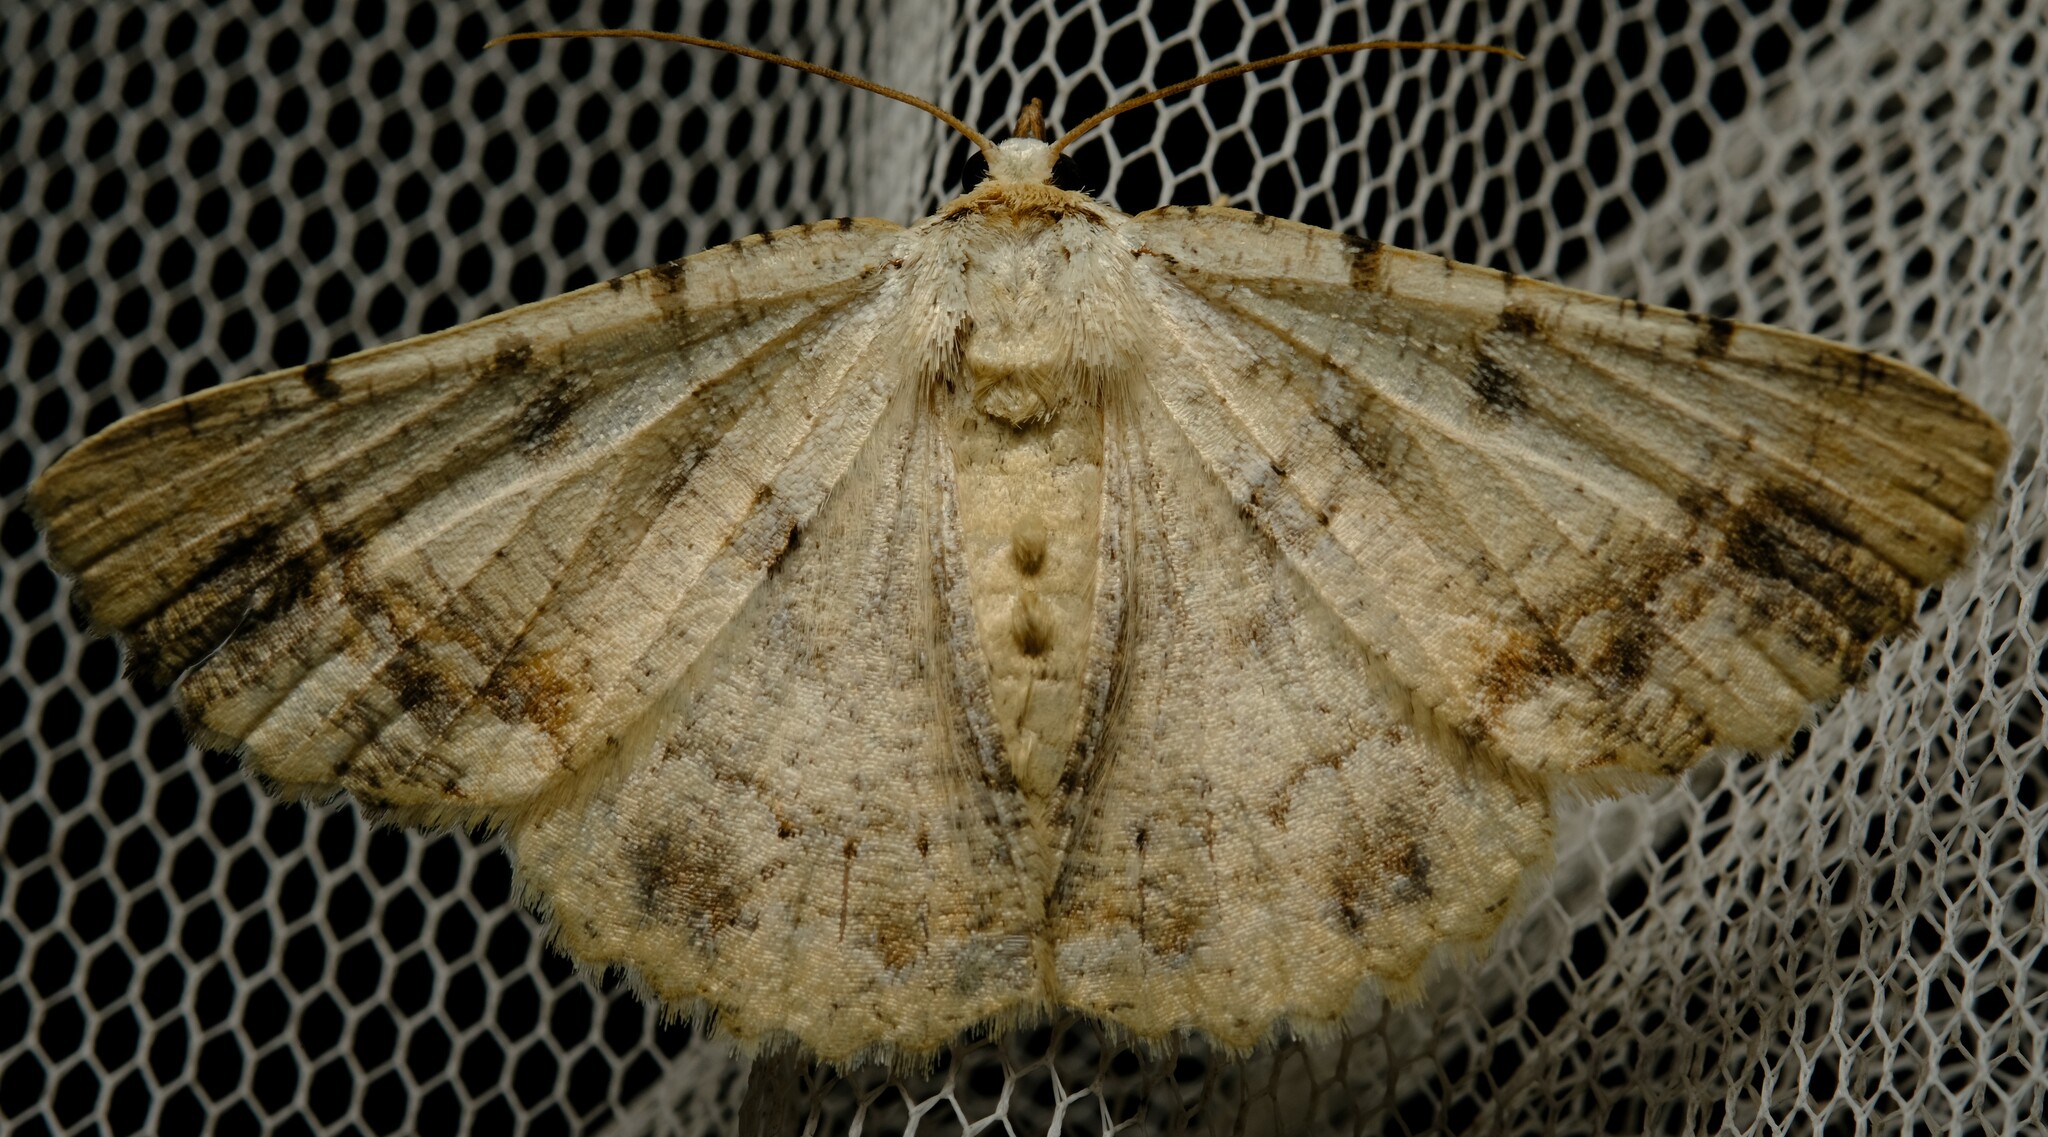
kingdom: Animalia
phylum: Arthropoda
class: Insecta
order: Lepidoptera
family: Geometridae
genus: Aeolochroma
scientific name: Aeolochroma quadrilinea
